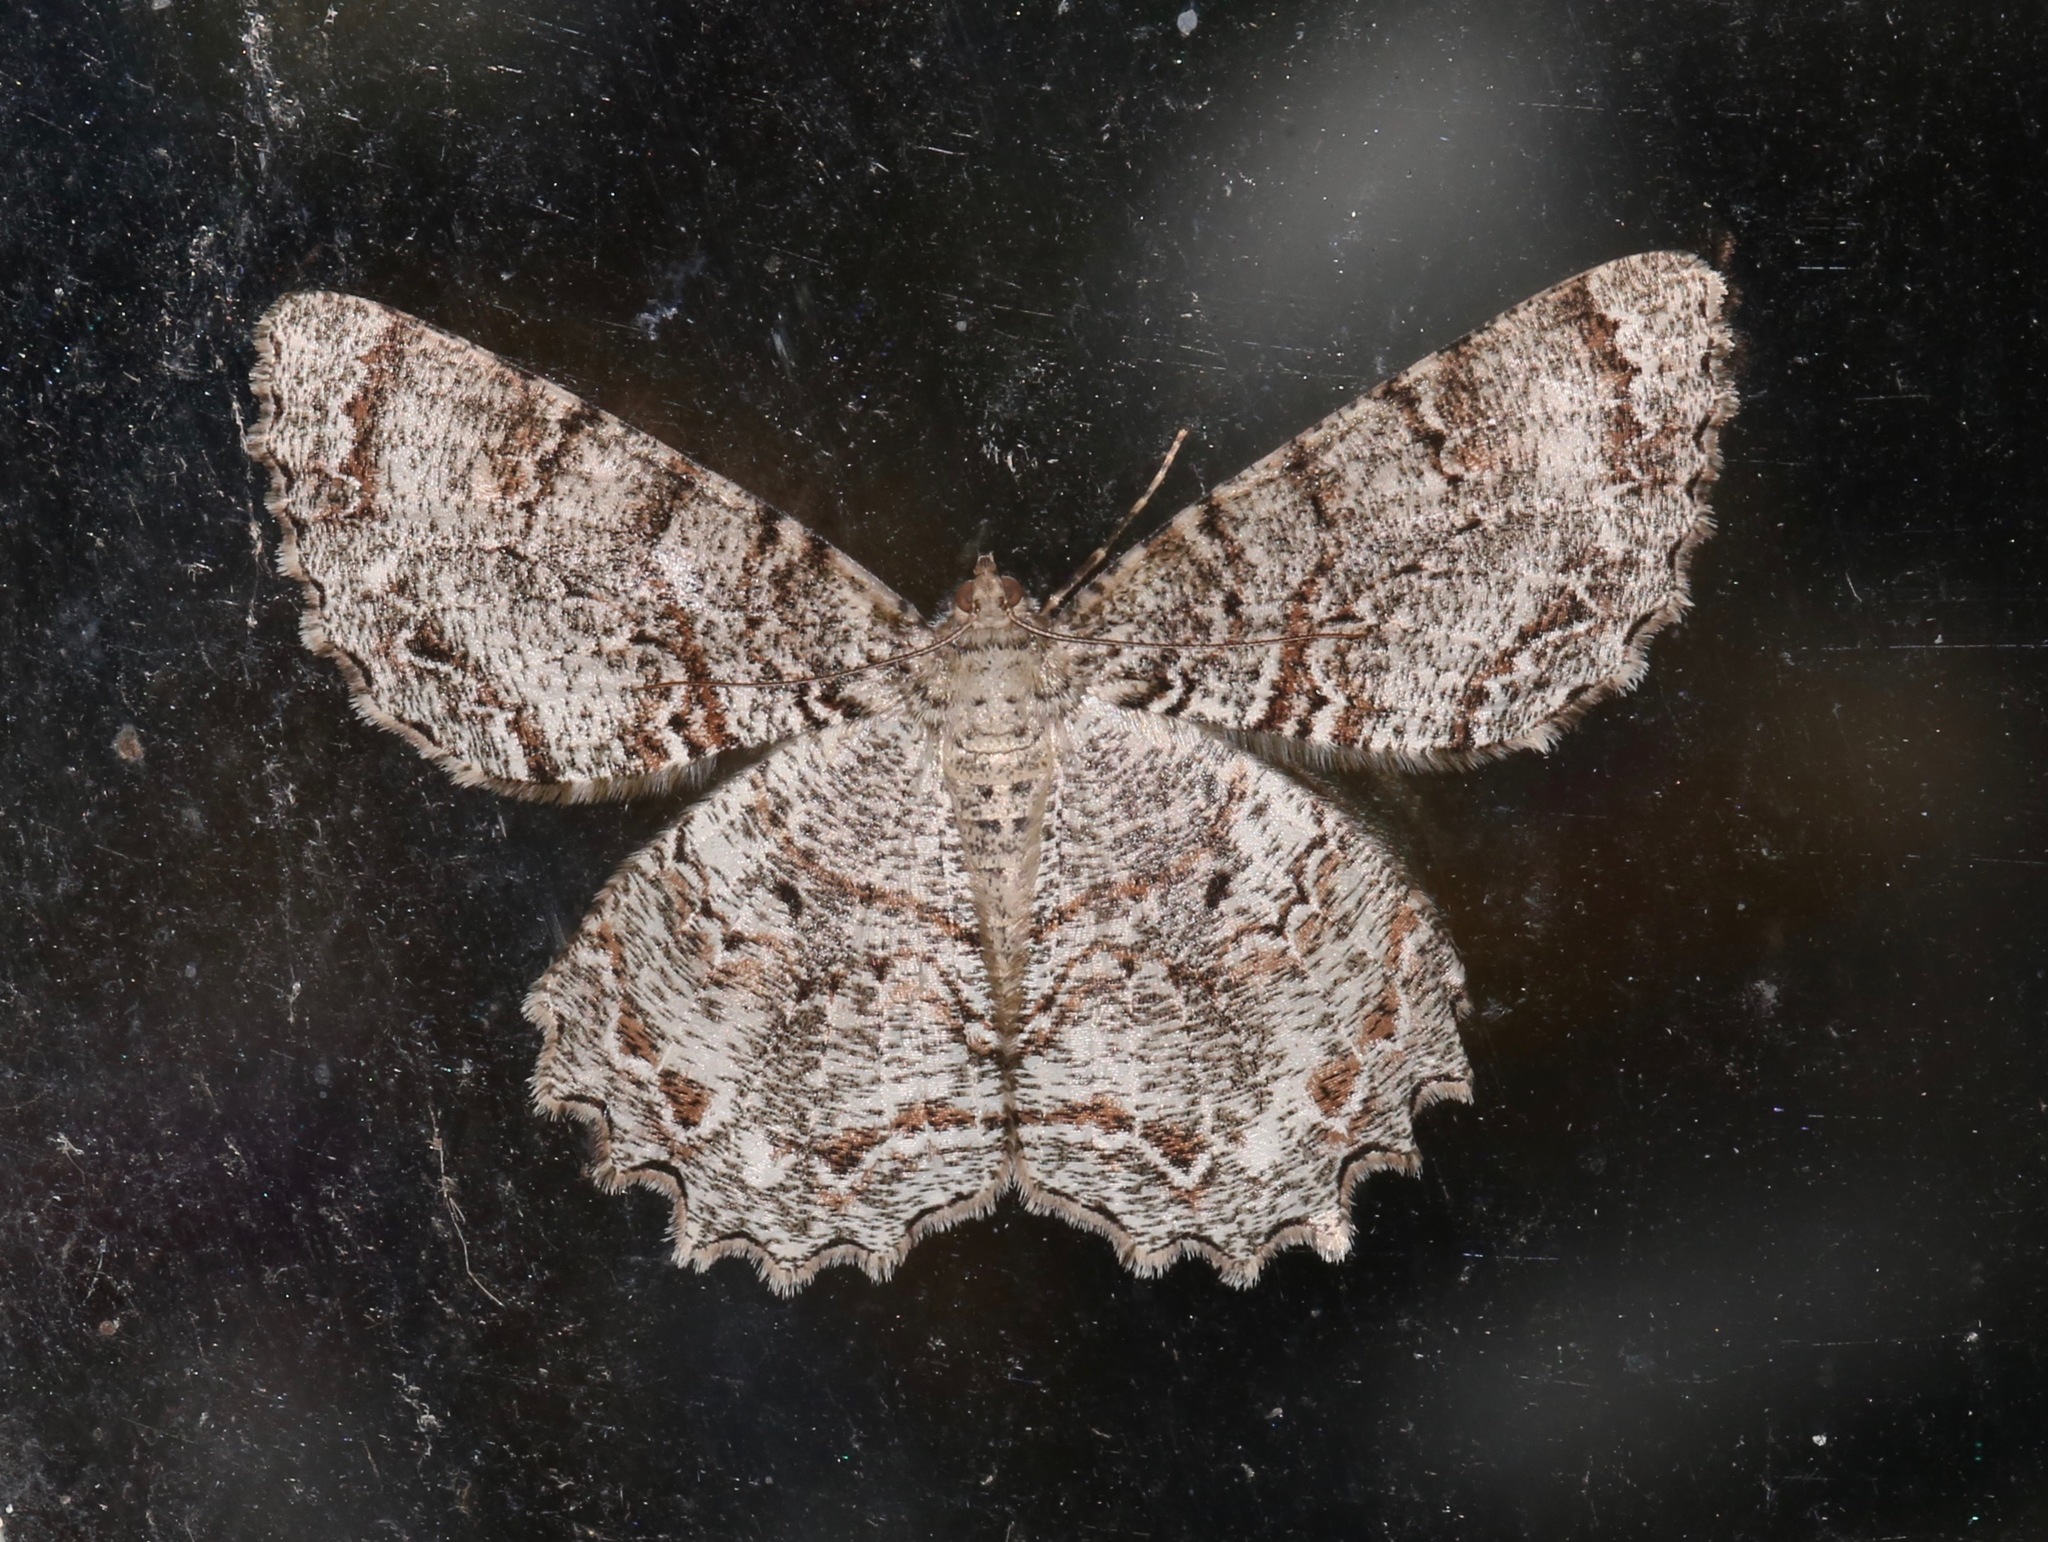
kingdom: Animalia
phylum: Arthropoda
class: Insecta
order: Lepidoptera
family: Geometridae
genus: Epimecis
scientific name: Epimecis hortaria
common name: Tulip-tree beauty
